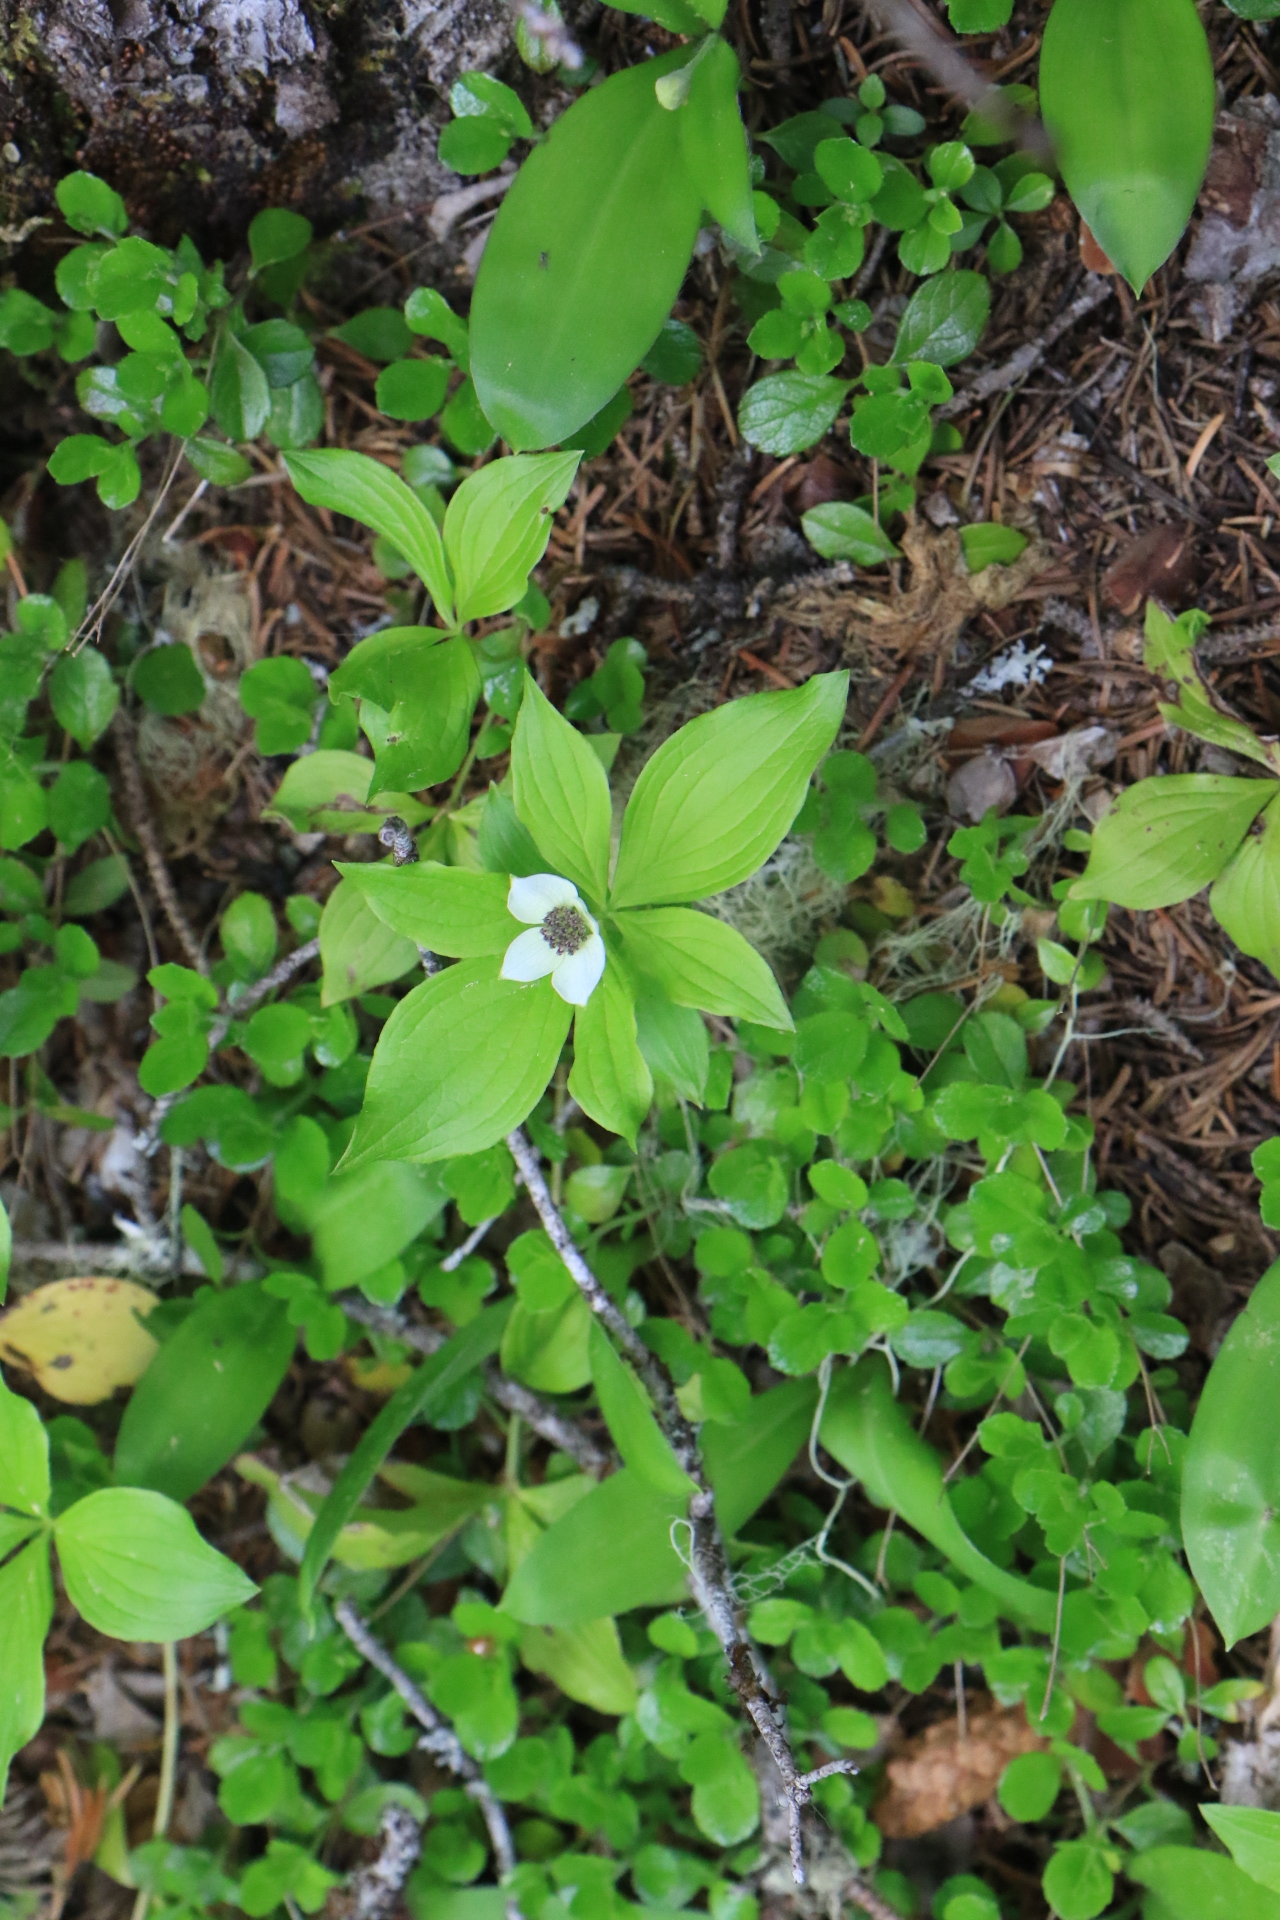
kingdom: Plantae
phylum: Tracheophyta
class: Magnoliopsida
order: Cornales
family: Cornaceae
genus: Cornus
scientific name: Cornus unalaschkensis
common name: Alaska bunchberry
